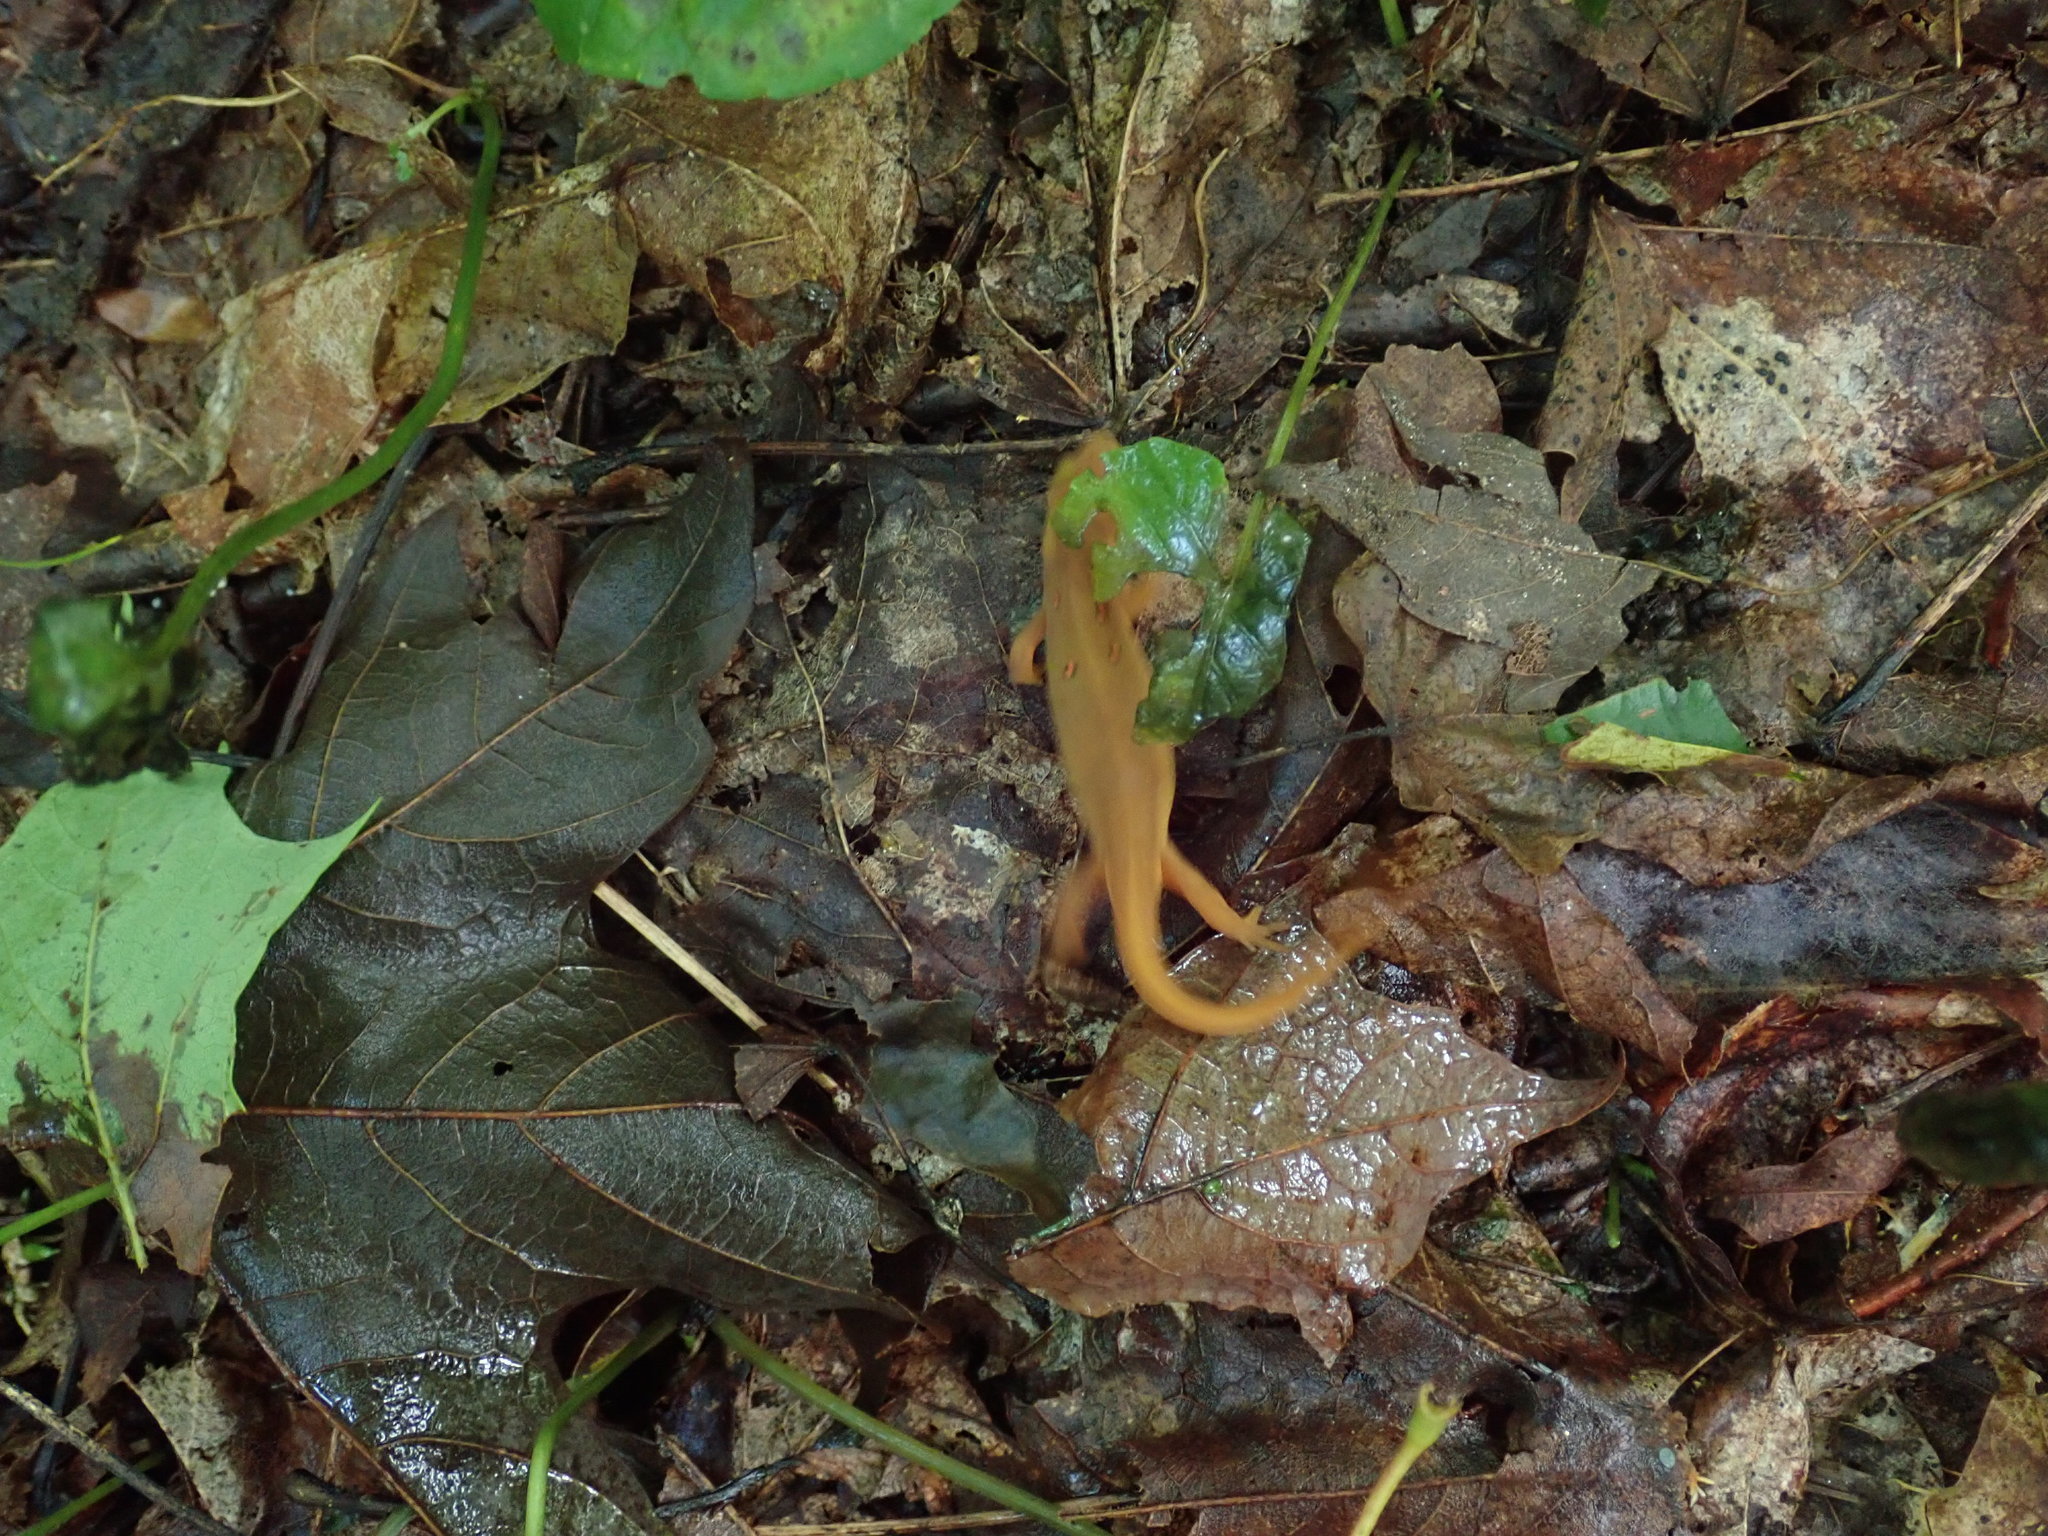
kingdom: Animalia
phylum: Chordata
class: Amphibia
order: Caudata
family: Salamandridae
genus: Notophthalmus
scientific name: Notophthalmus viridescens
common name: Eastern newt
